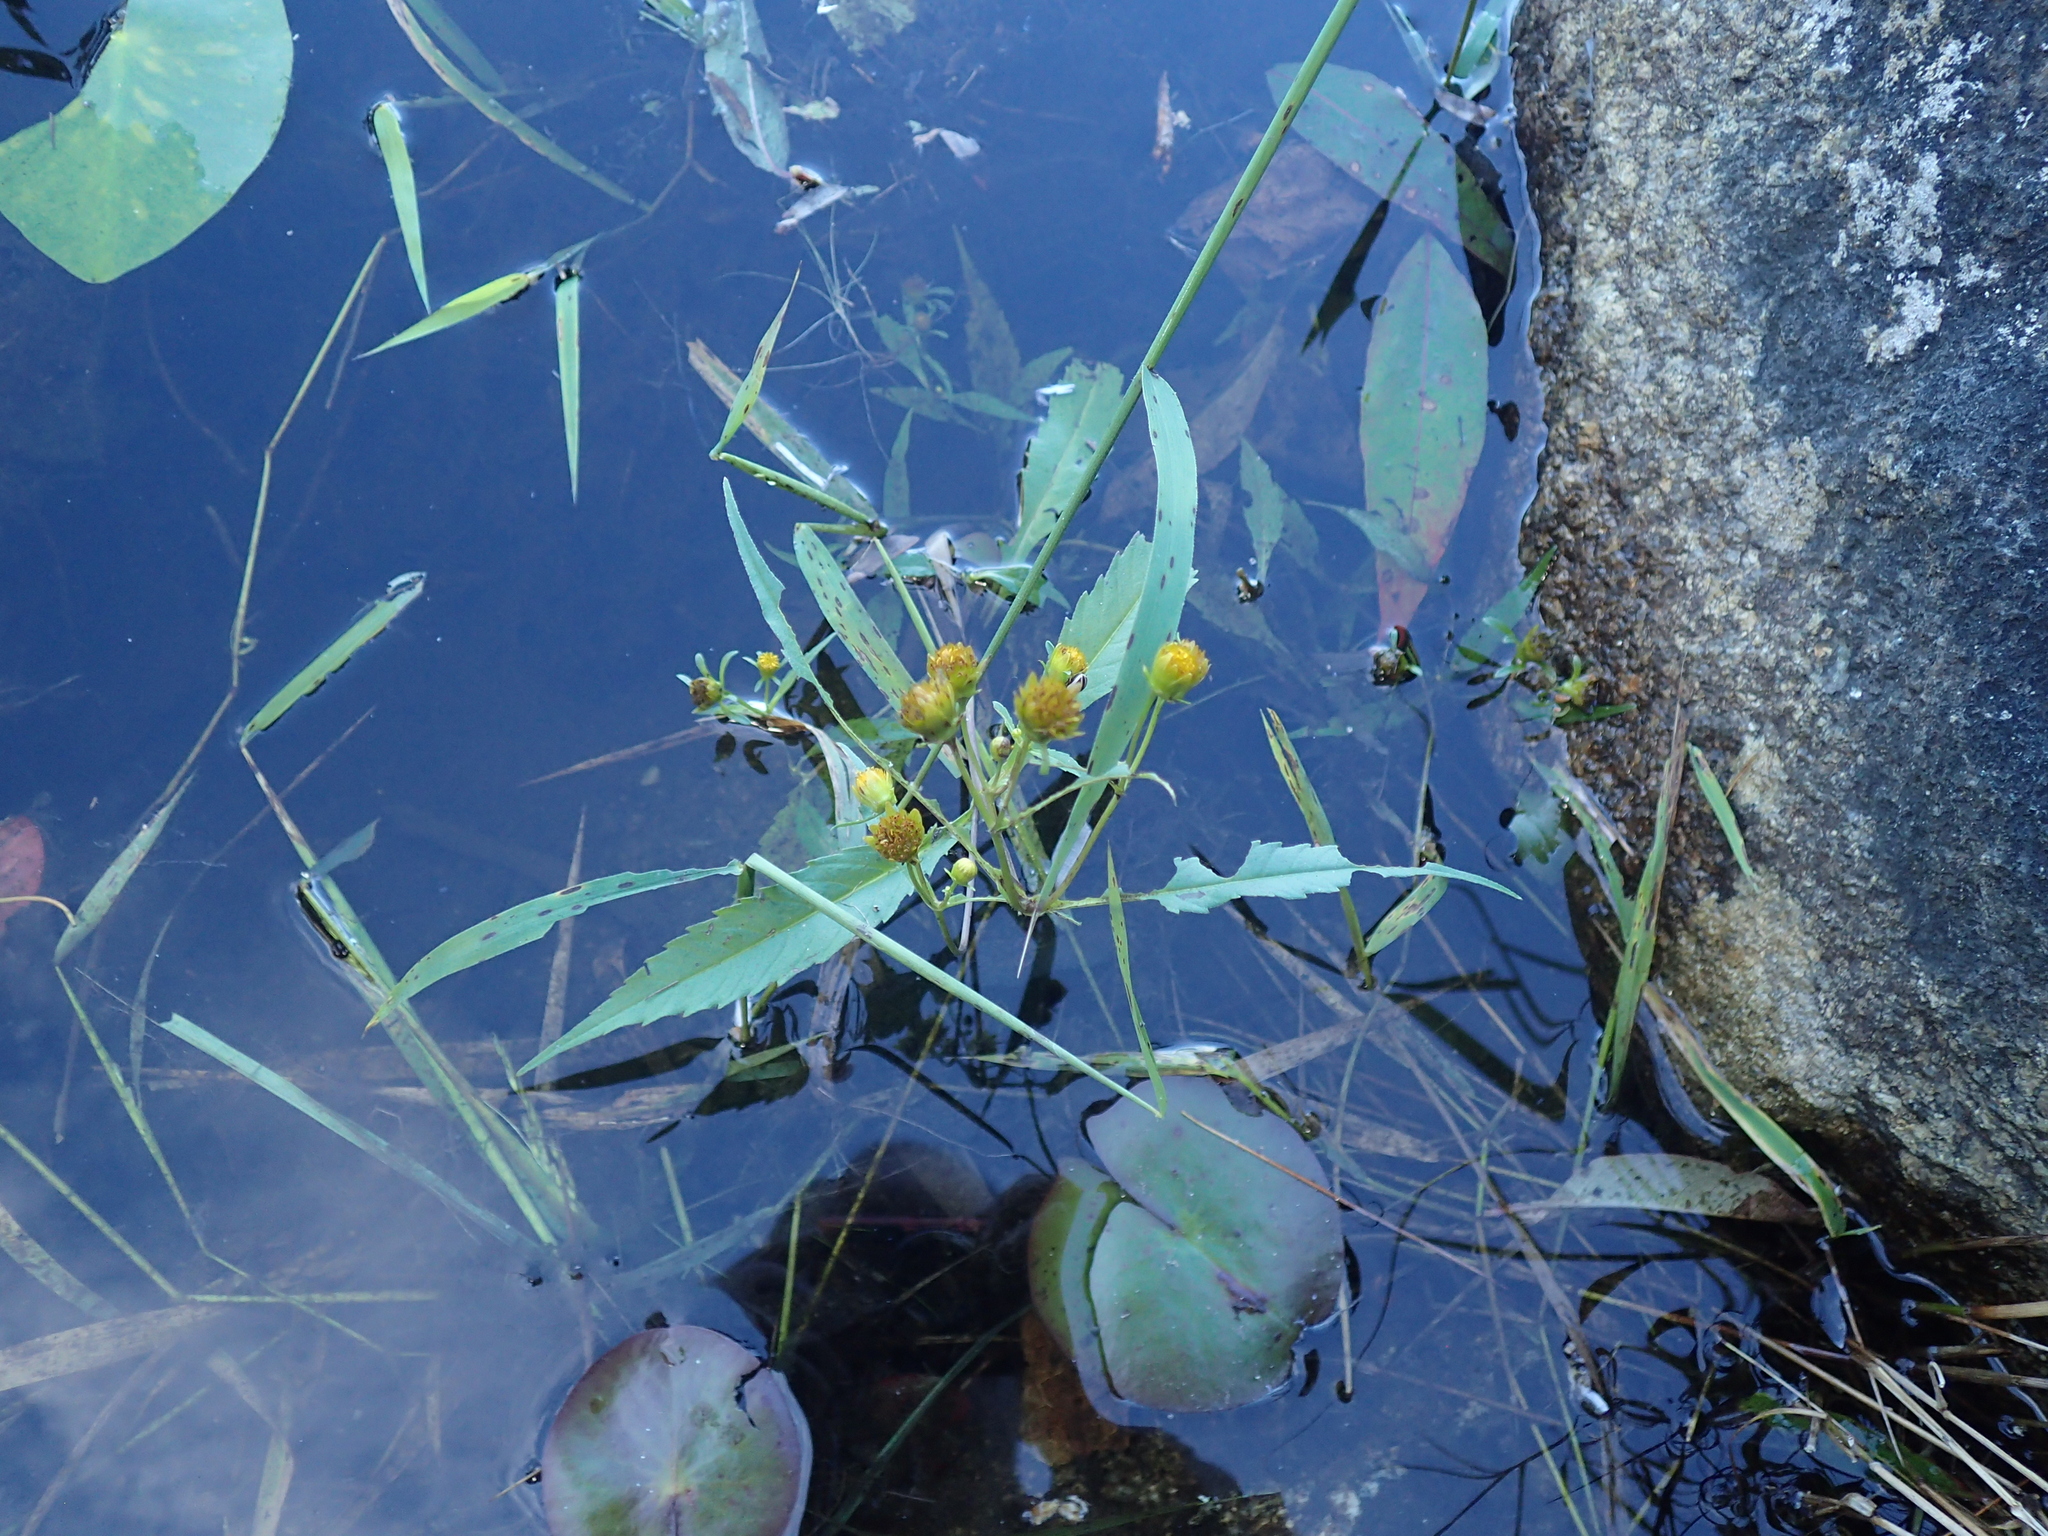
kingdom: Plantae
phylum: Tracheophyta
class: Magnoliopsida
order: Asterales
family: Asteraceae
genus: Bidens
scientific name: Bidens connata
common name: London bur-marigold
